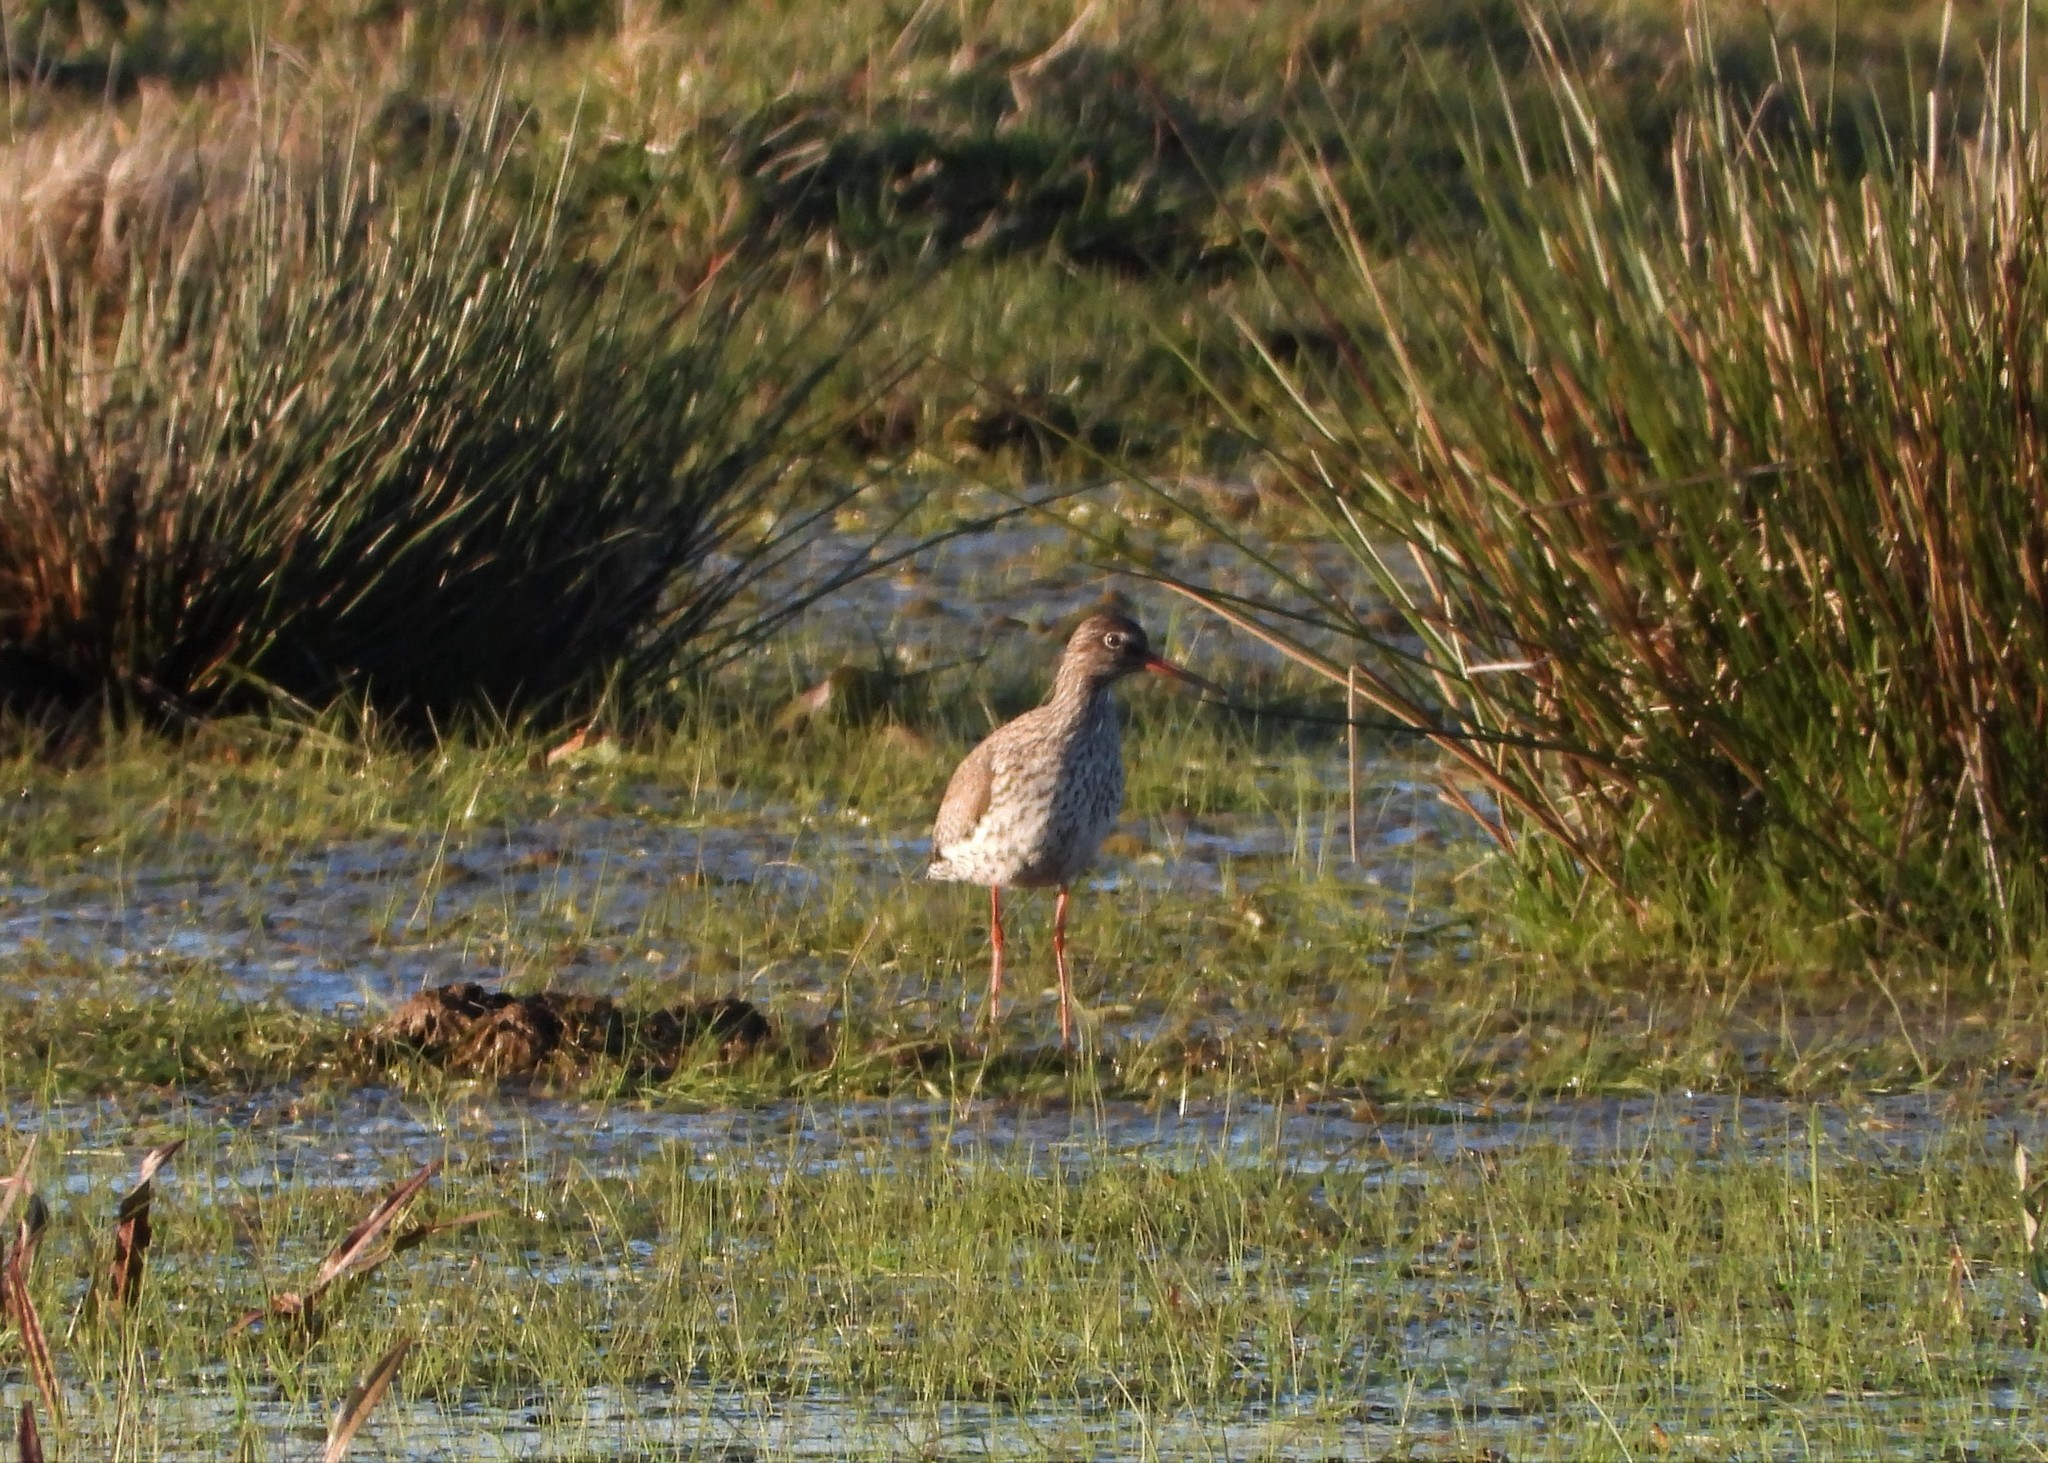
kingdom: Animalia
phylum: Chordata
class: Aves
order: Charadriiformes
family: Scolopacidae
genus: Tringa
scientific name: Tringa totanus
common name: Common redshank
